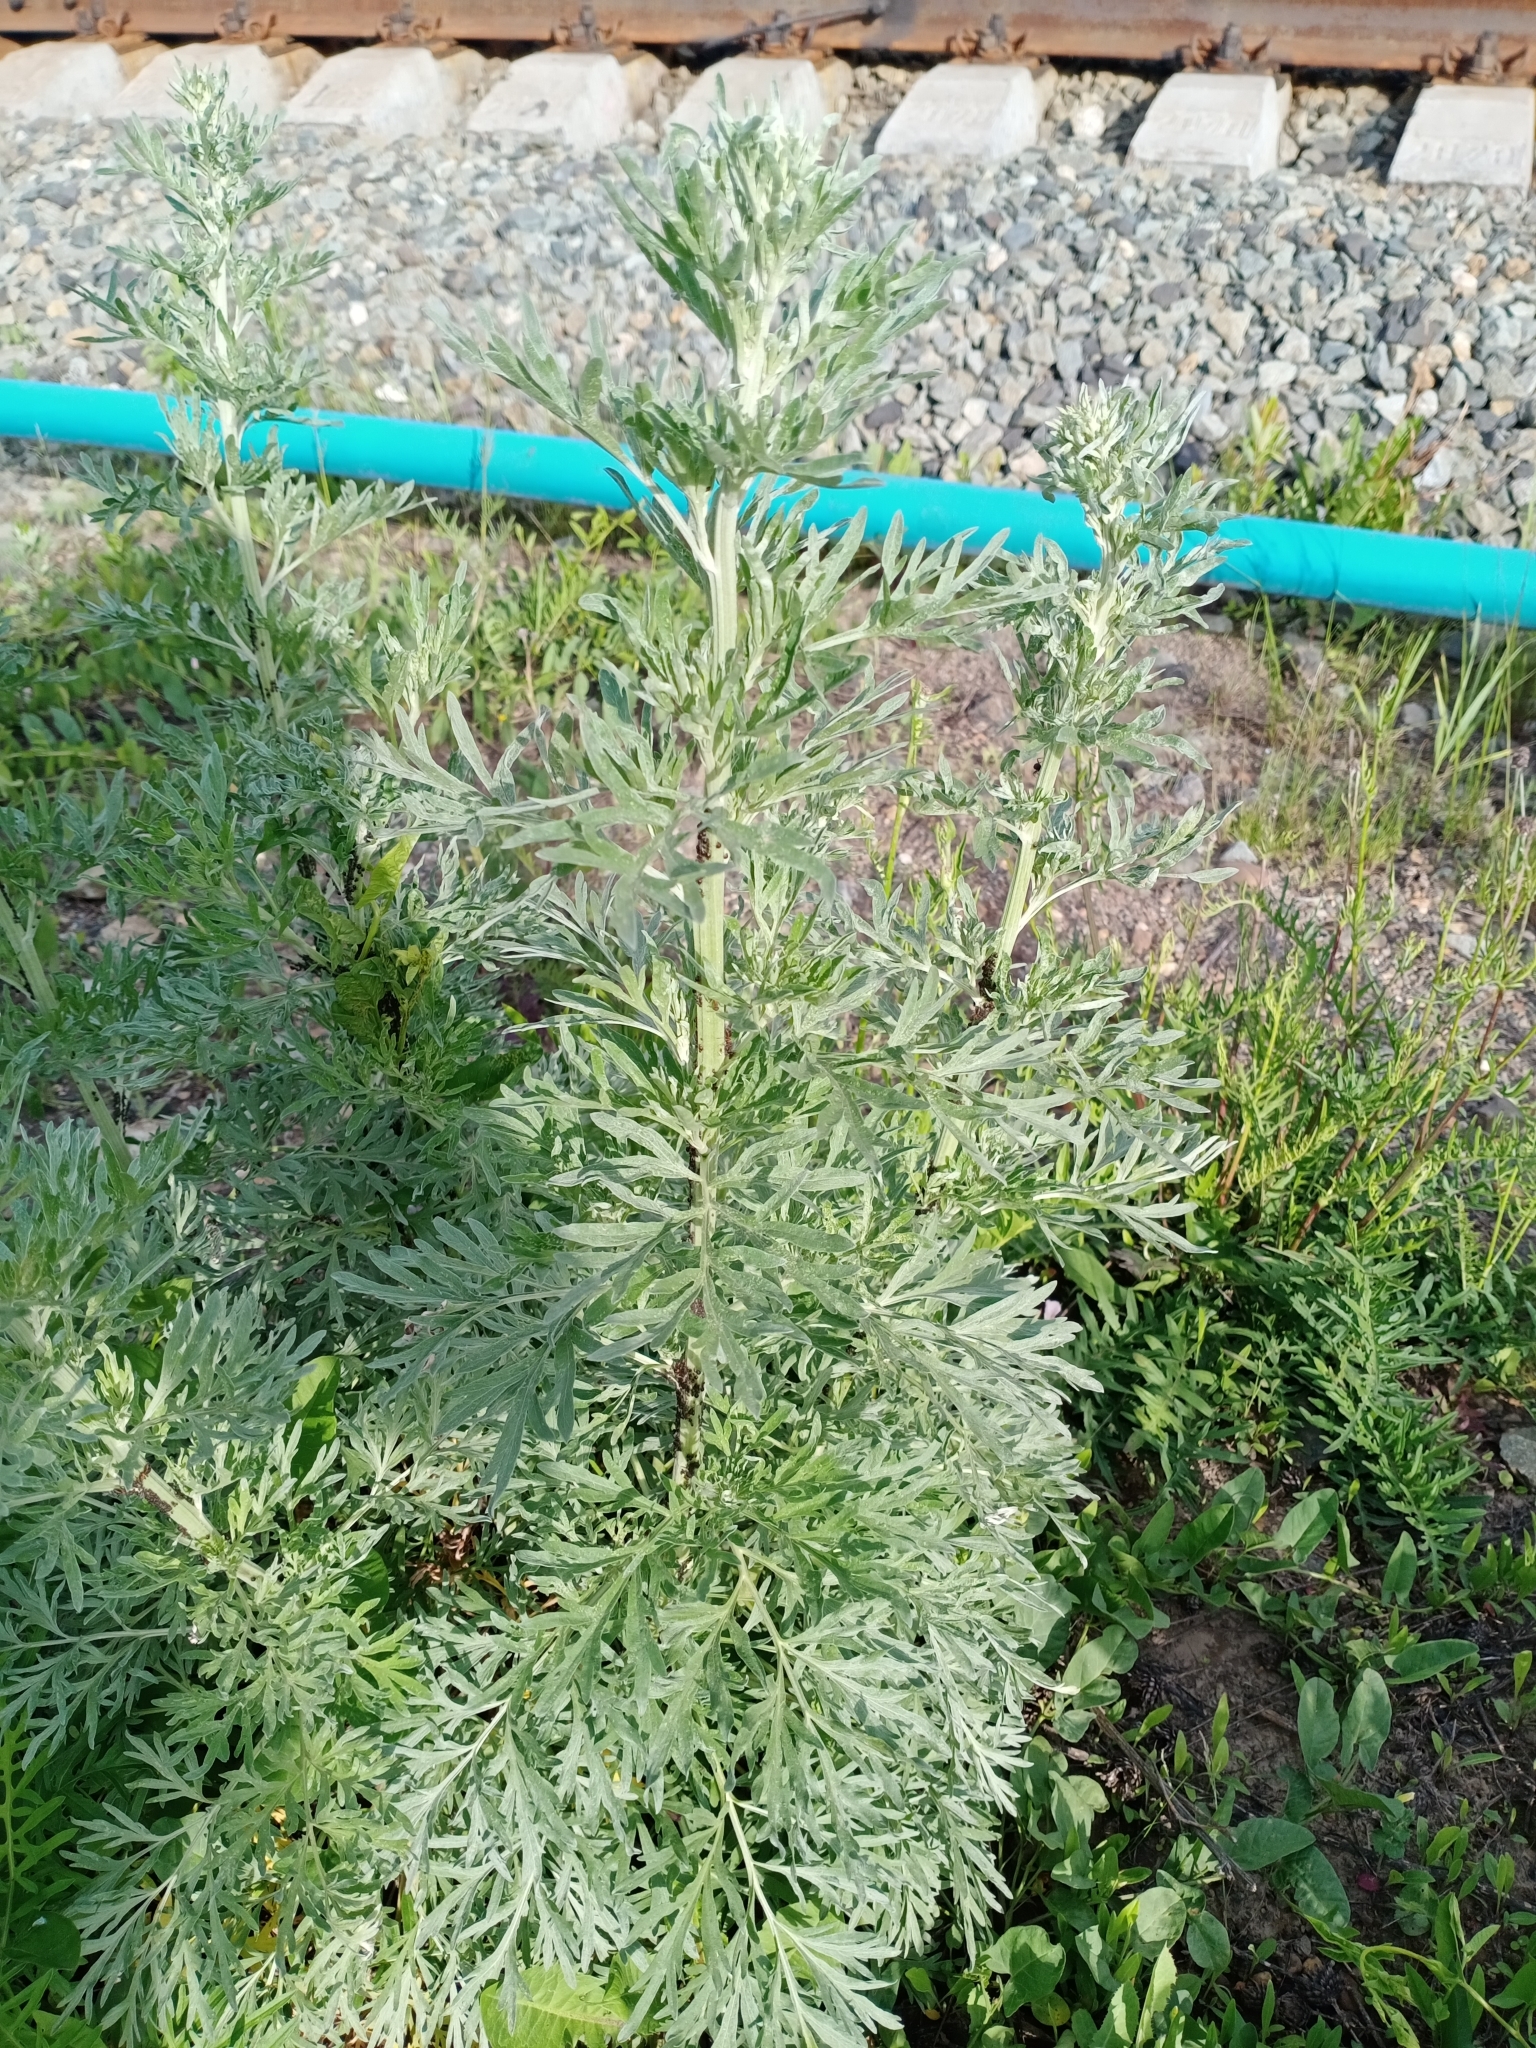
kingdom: Plantae
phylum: Tracheophyta
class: Magnoliopsida
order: Asterales
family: Asteraceae
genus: Artemisia
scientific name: Artemisia sieversiana
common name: Sieversian wormwood
